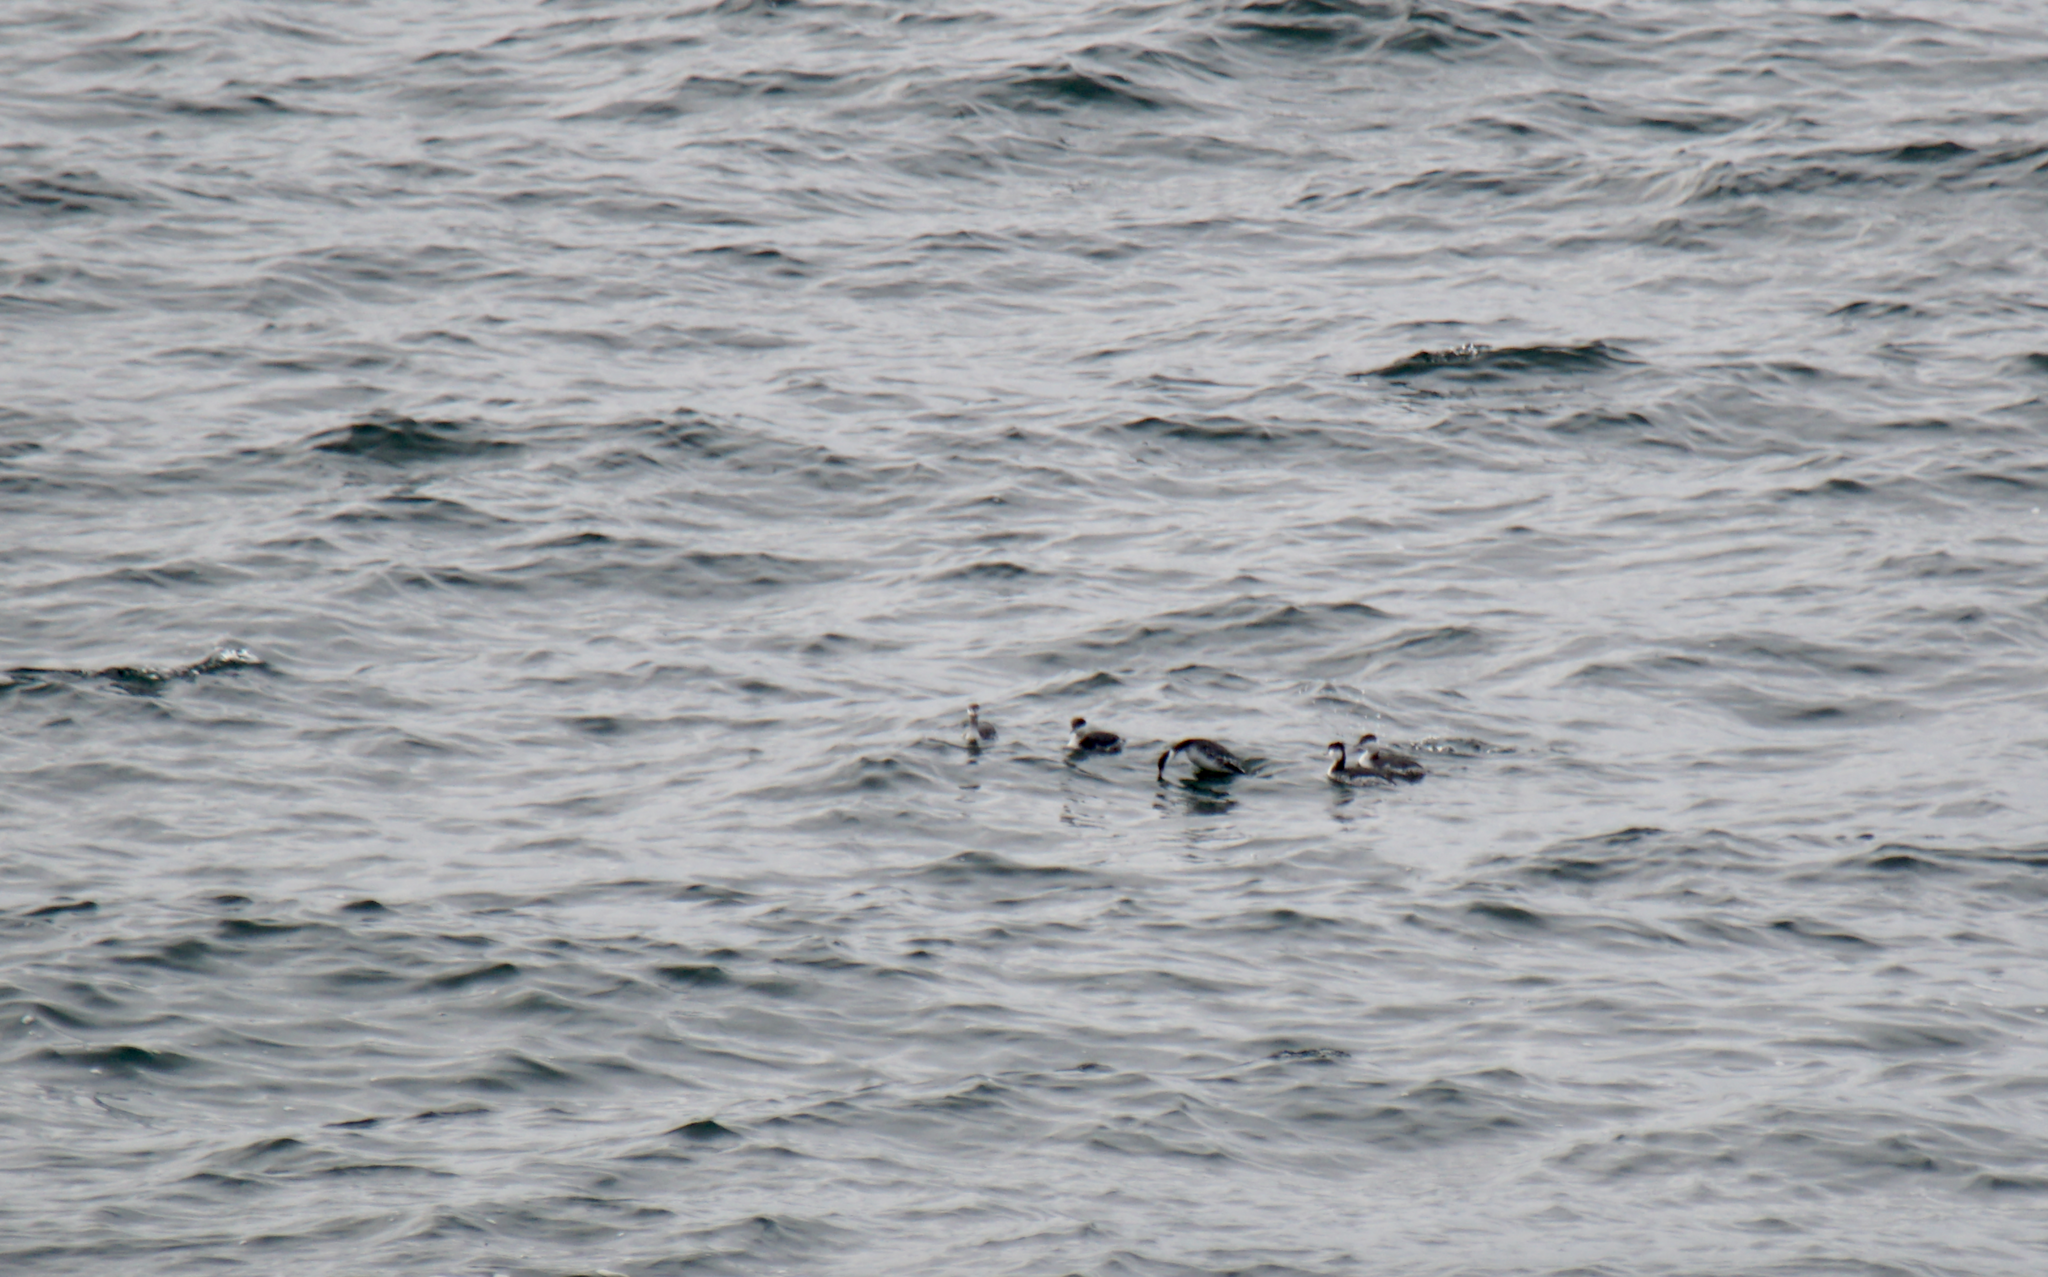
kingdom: Animalia
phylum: Chordata
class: Aves
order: Podicipediformes
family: Podicipedidae
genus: Podiceps
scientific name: Podiceps auritus
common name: Horned grebe
